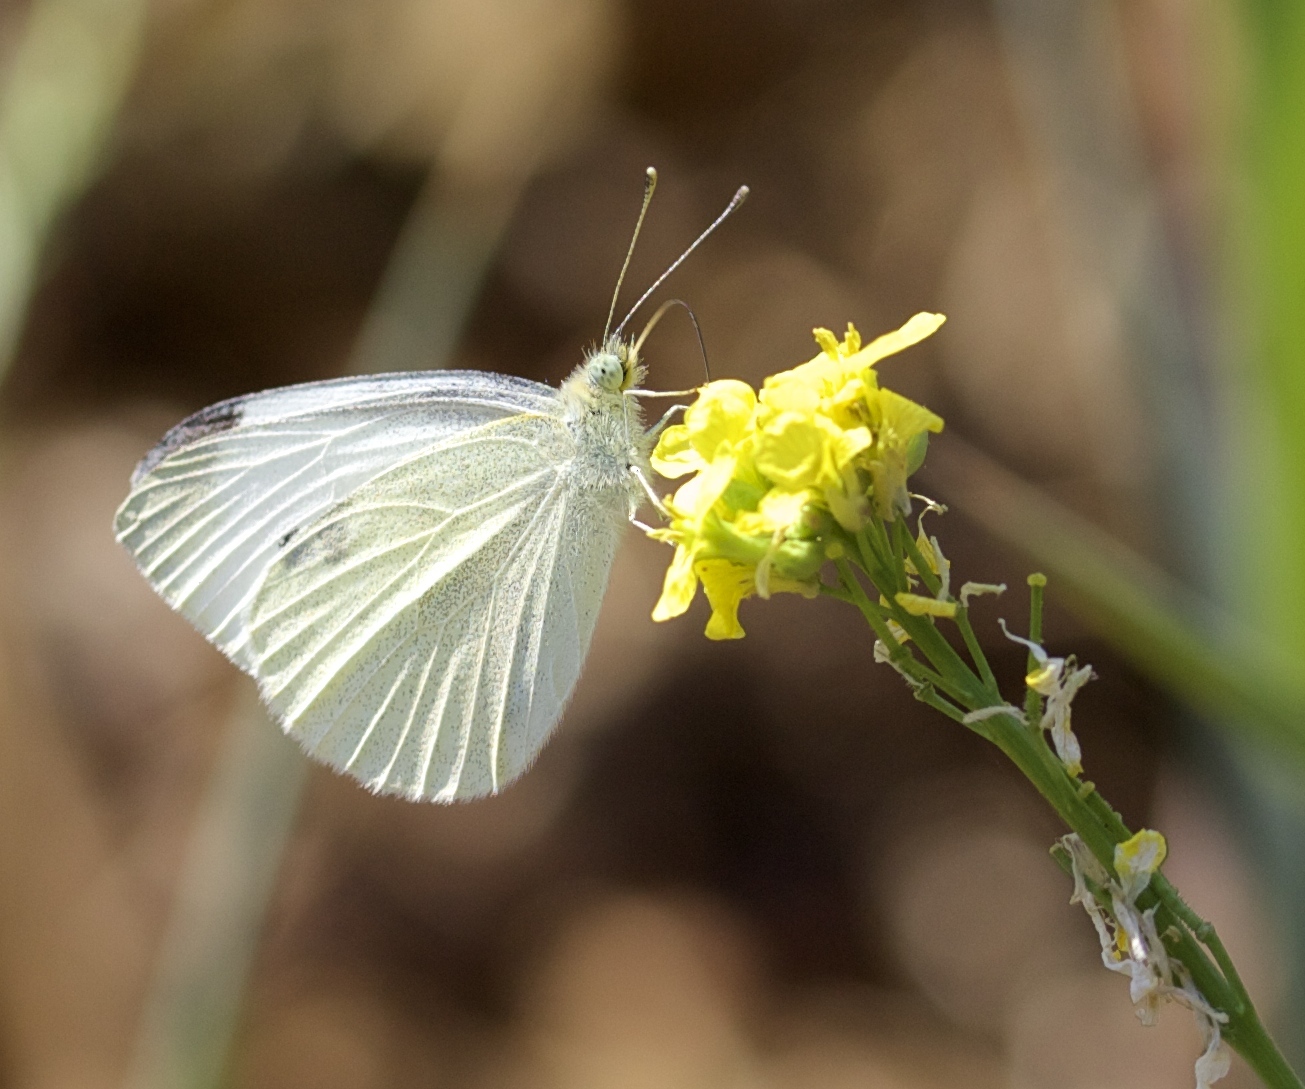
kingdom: Animalia
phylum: Arthropoda
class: Insecta
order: Lepidoptera
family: Pieridae
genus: Pieris
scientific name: Pieris rapae
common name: Small white
